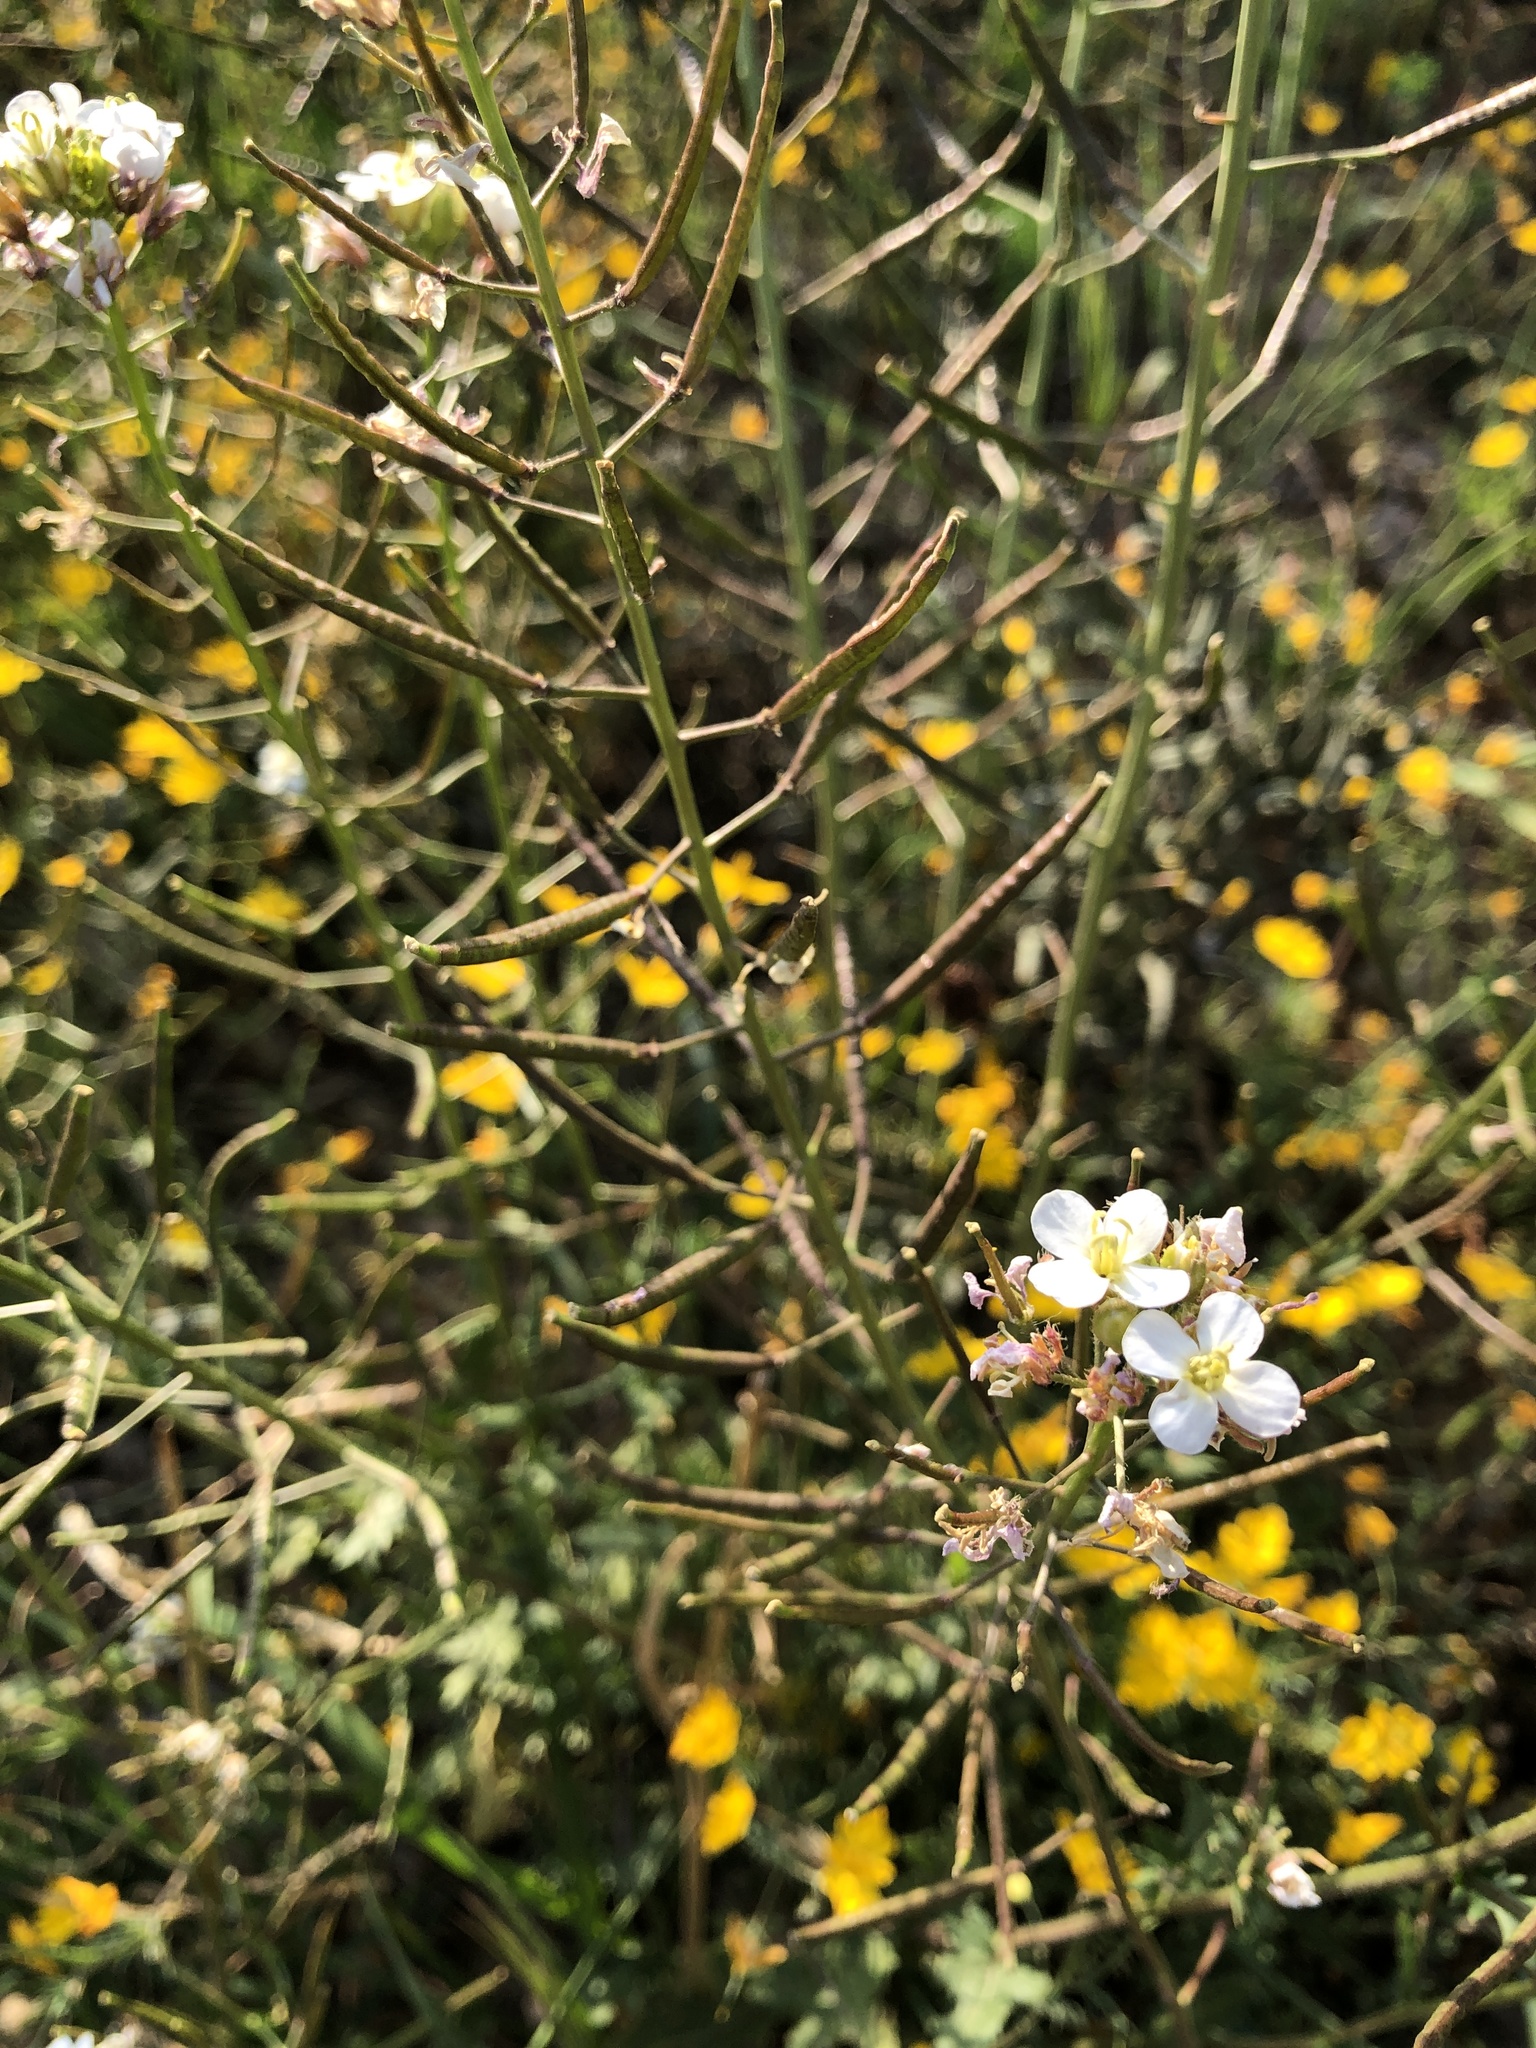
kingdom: Plantae
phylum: Tracheophyta
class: Magnoliopsida
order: Brassicales
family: Brassicaceae
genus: Diplotaxis
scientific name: Diplotaxis erucoides
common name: White rocket
